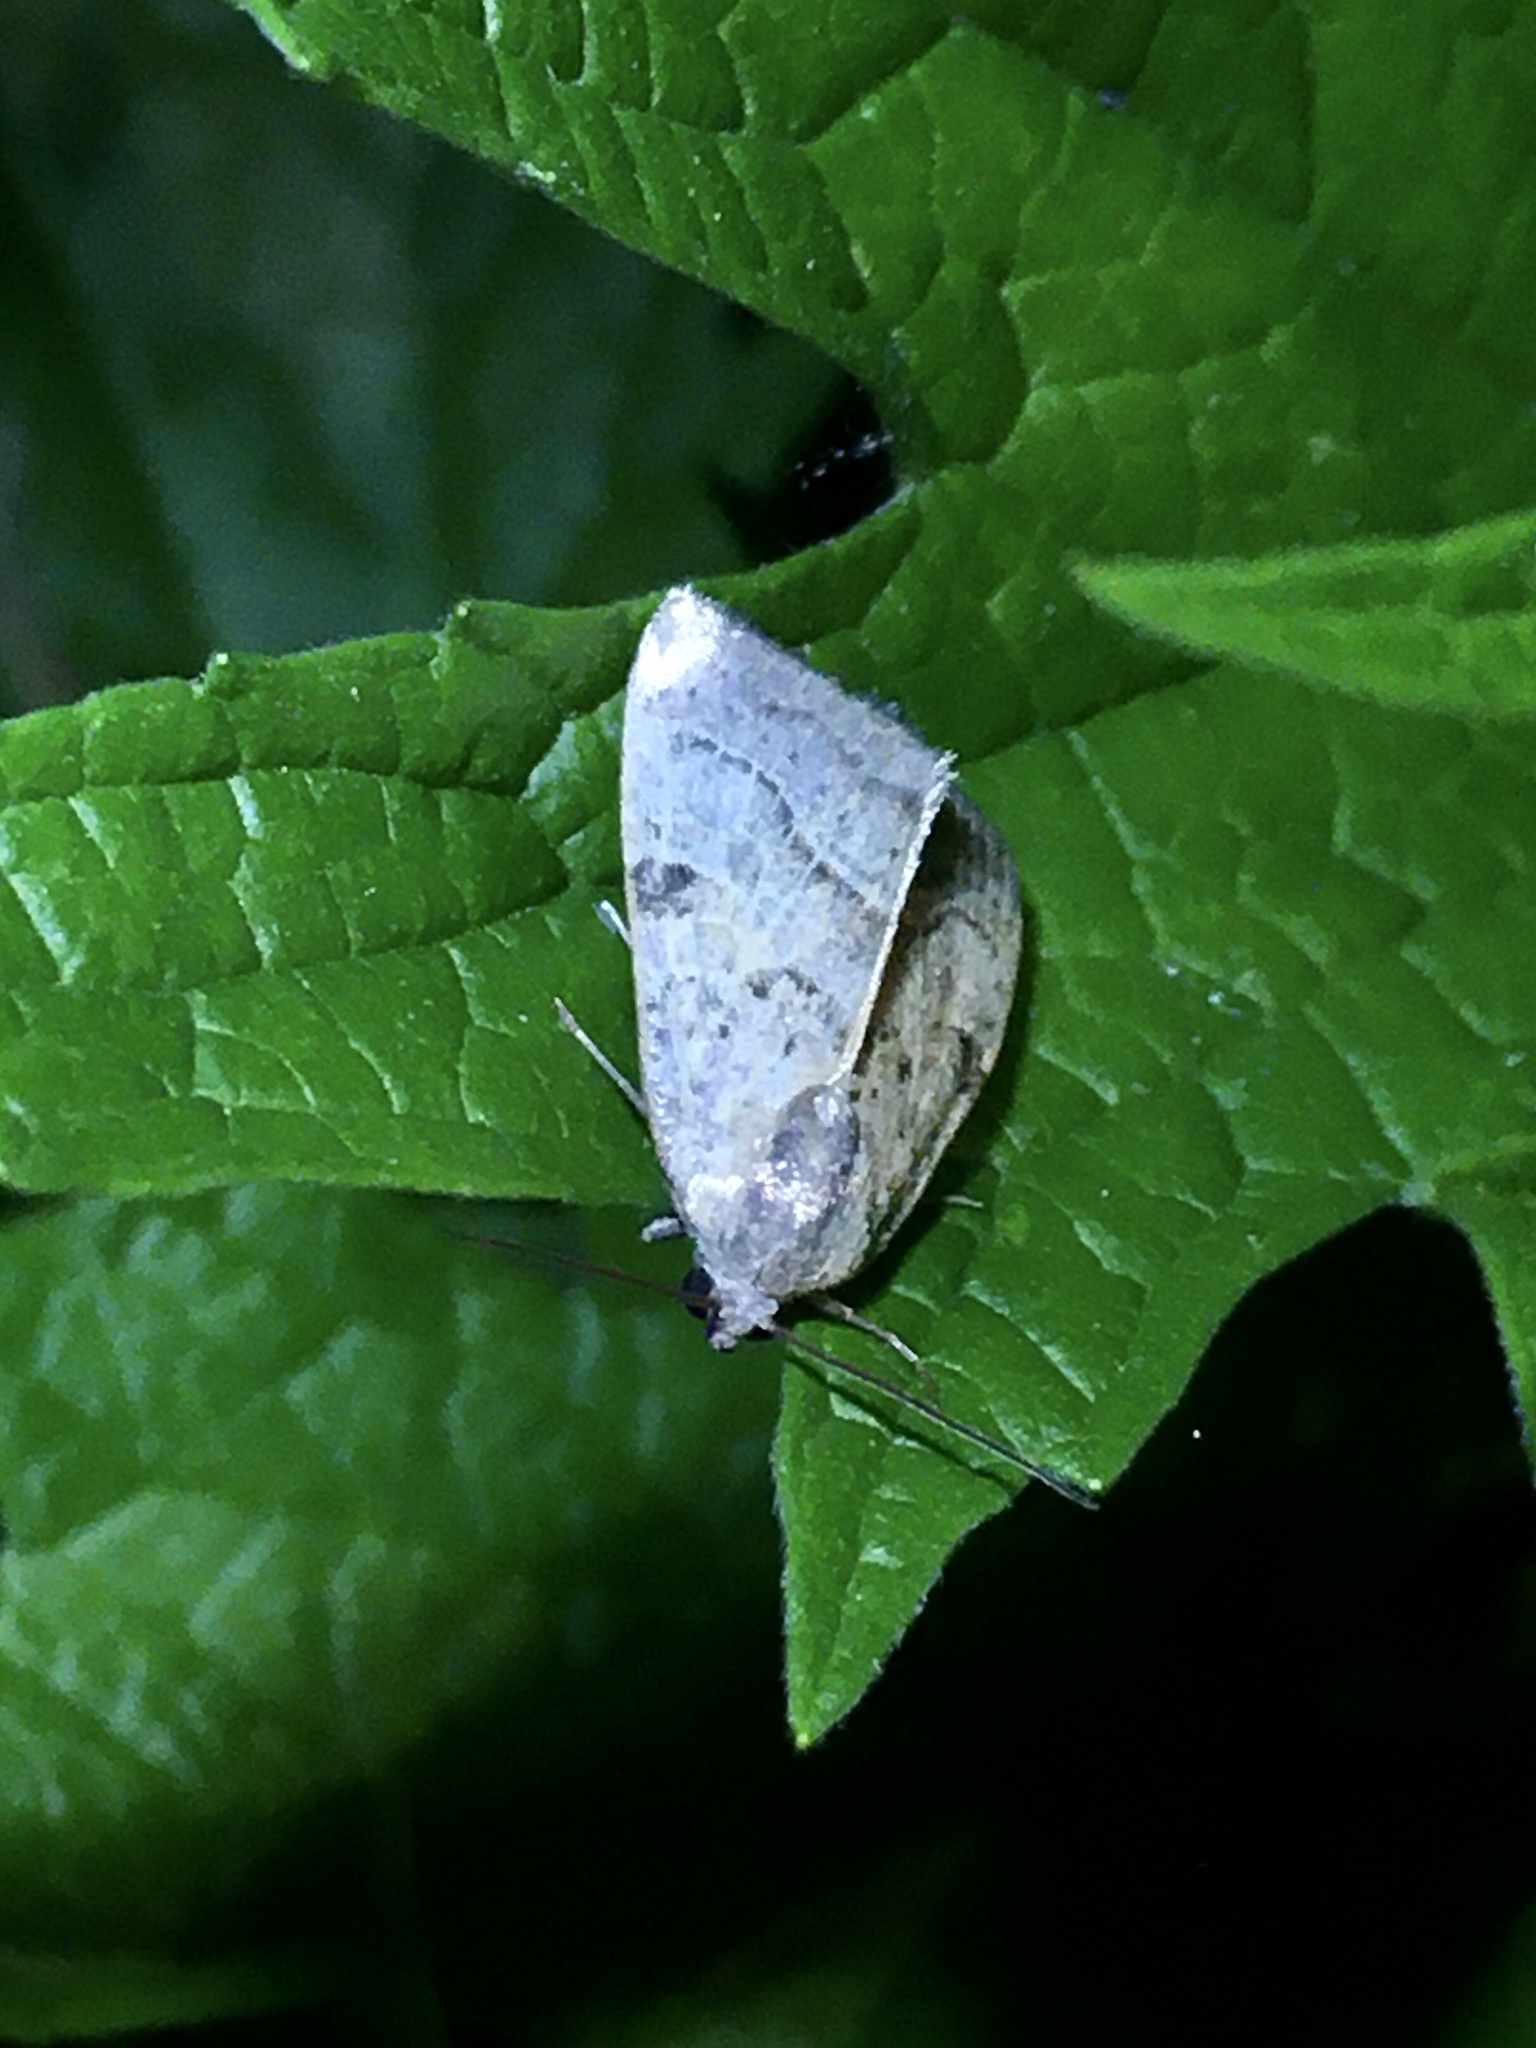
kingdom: Animalia
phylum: Arthropoda
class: Insecta
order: Lepidoptera
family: Noctuidae
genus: Galgula
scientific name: Galgula partita
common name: Wedgeling
